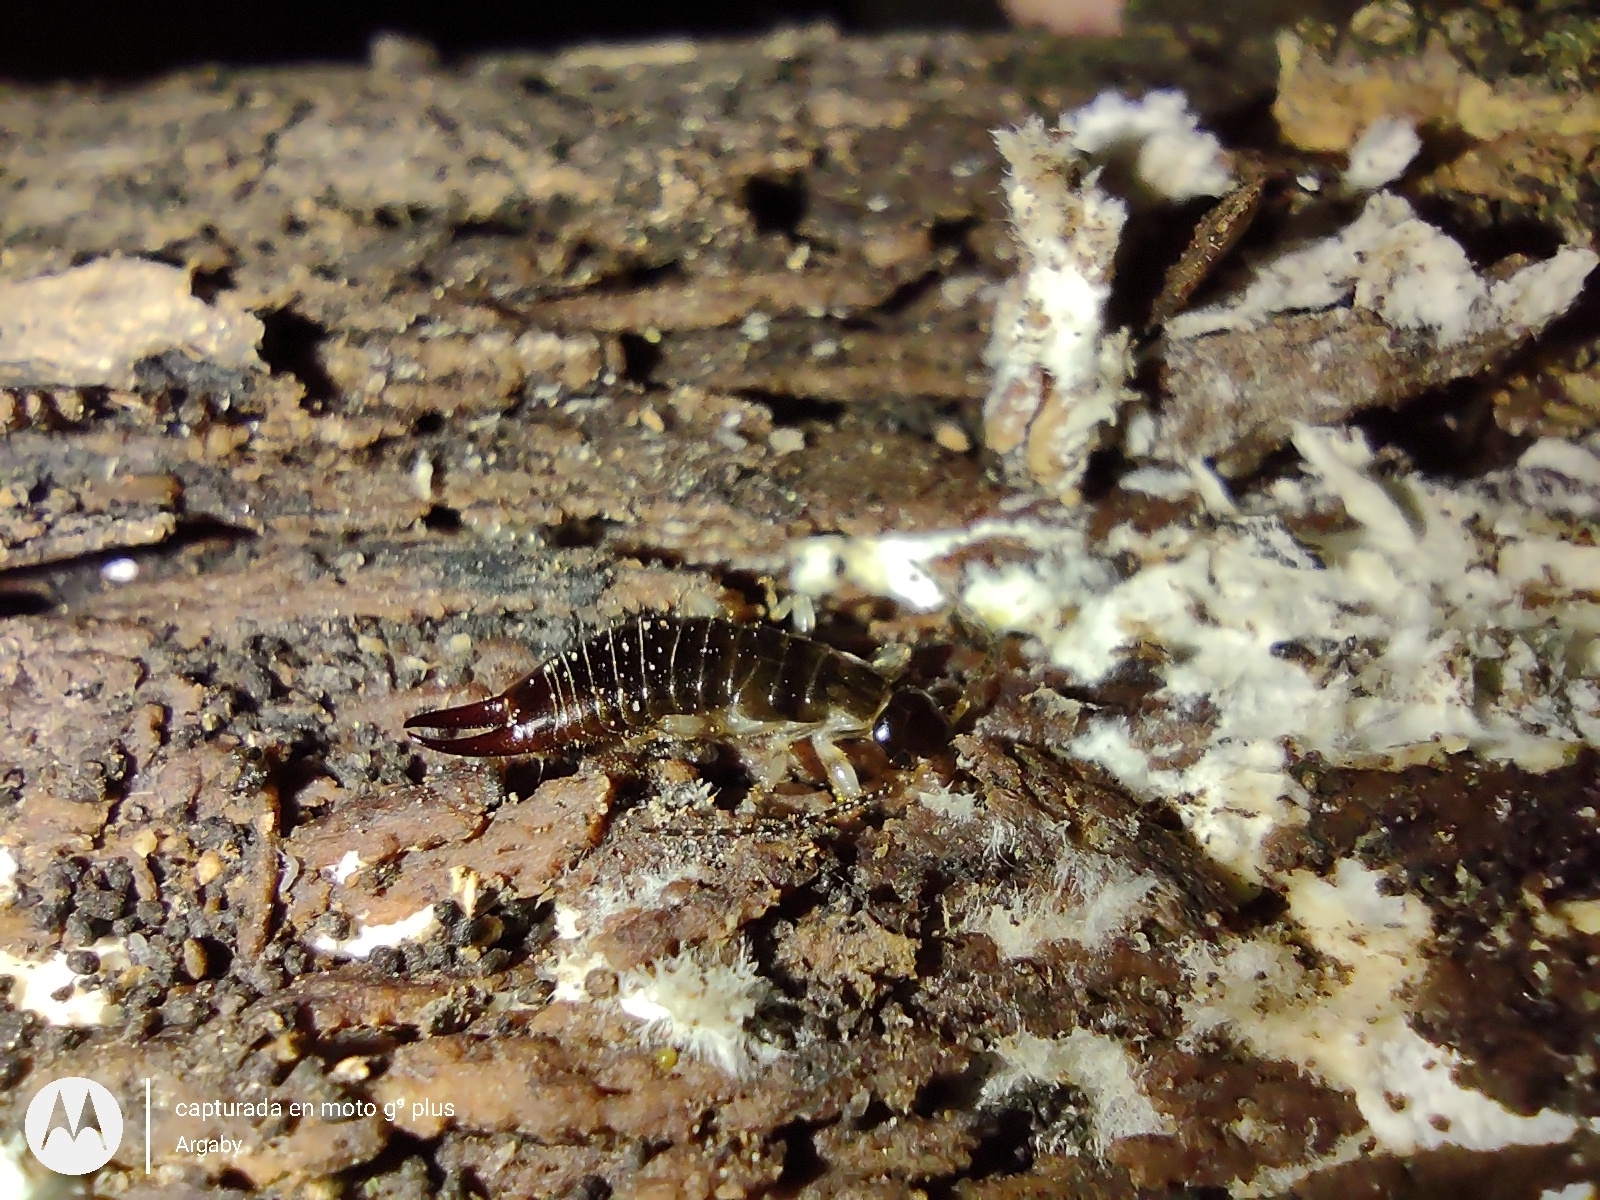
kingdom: Animalia
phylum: Arthropoda
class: Insecta
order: Dermaptera
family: Anisolabididae
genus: Euborellia
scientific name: Euborellia annulipes
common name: Ringlegged earwig
